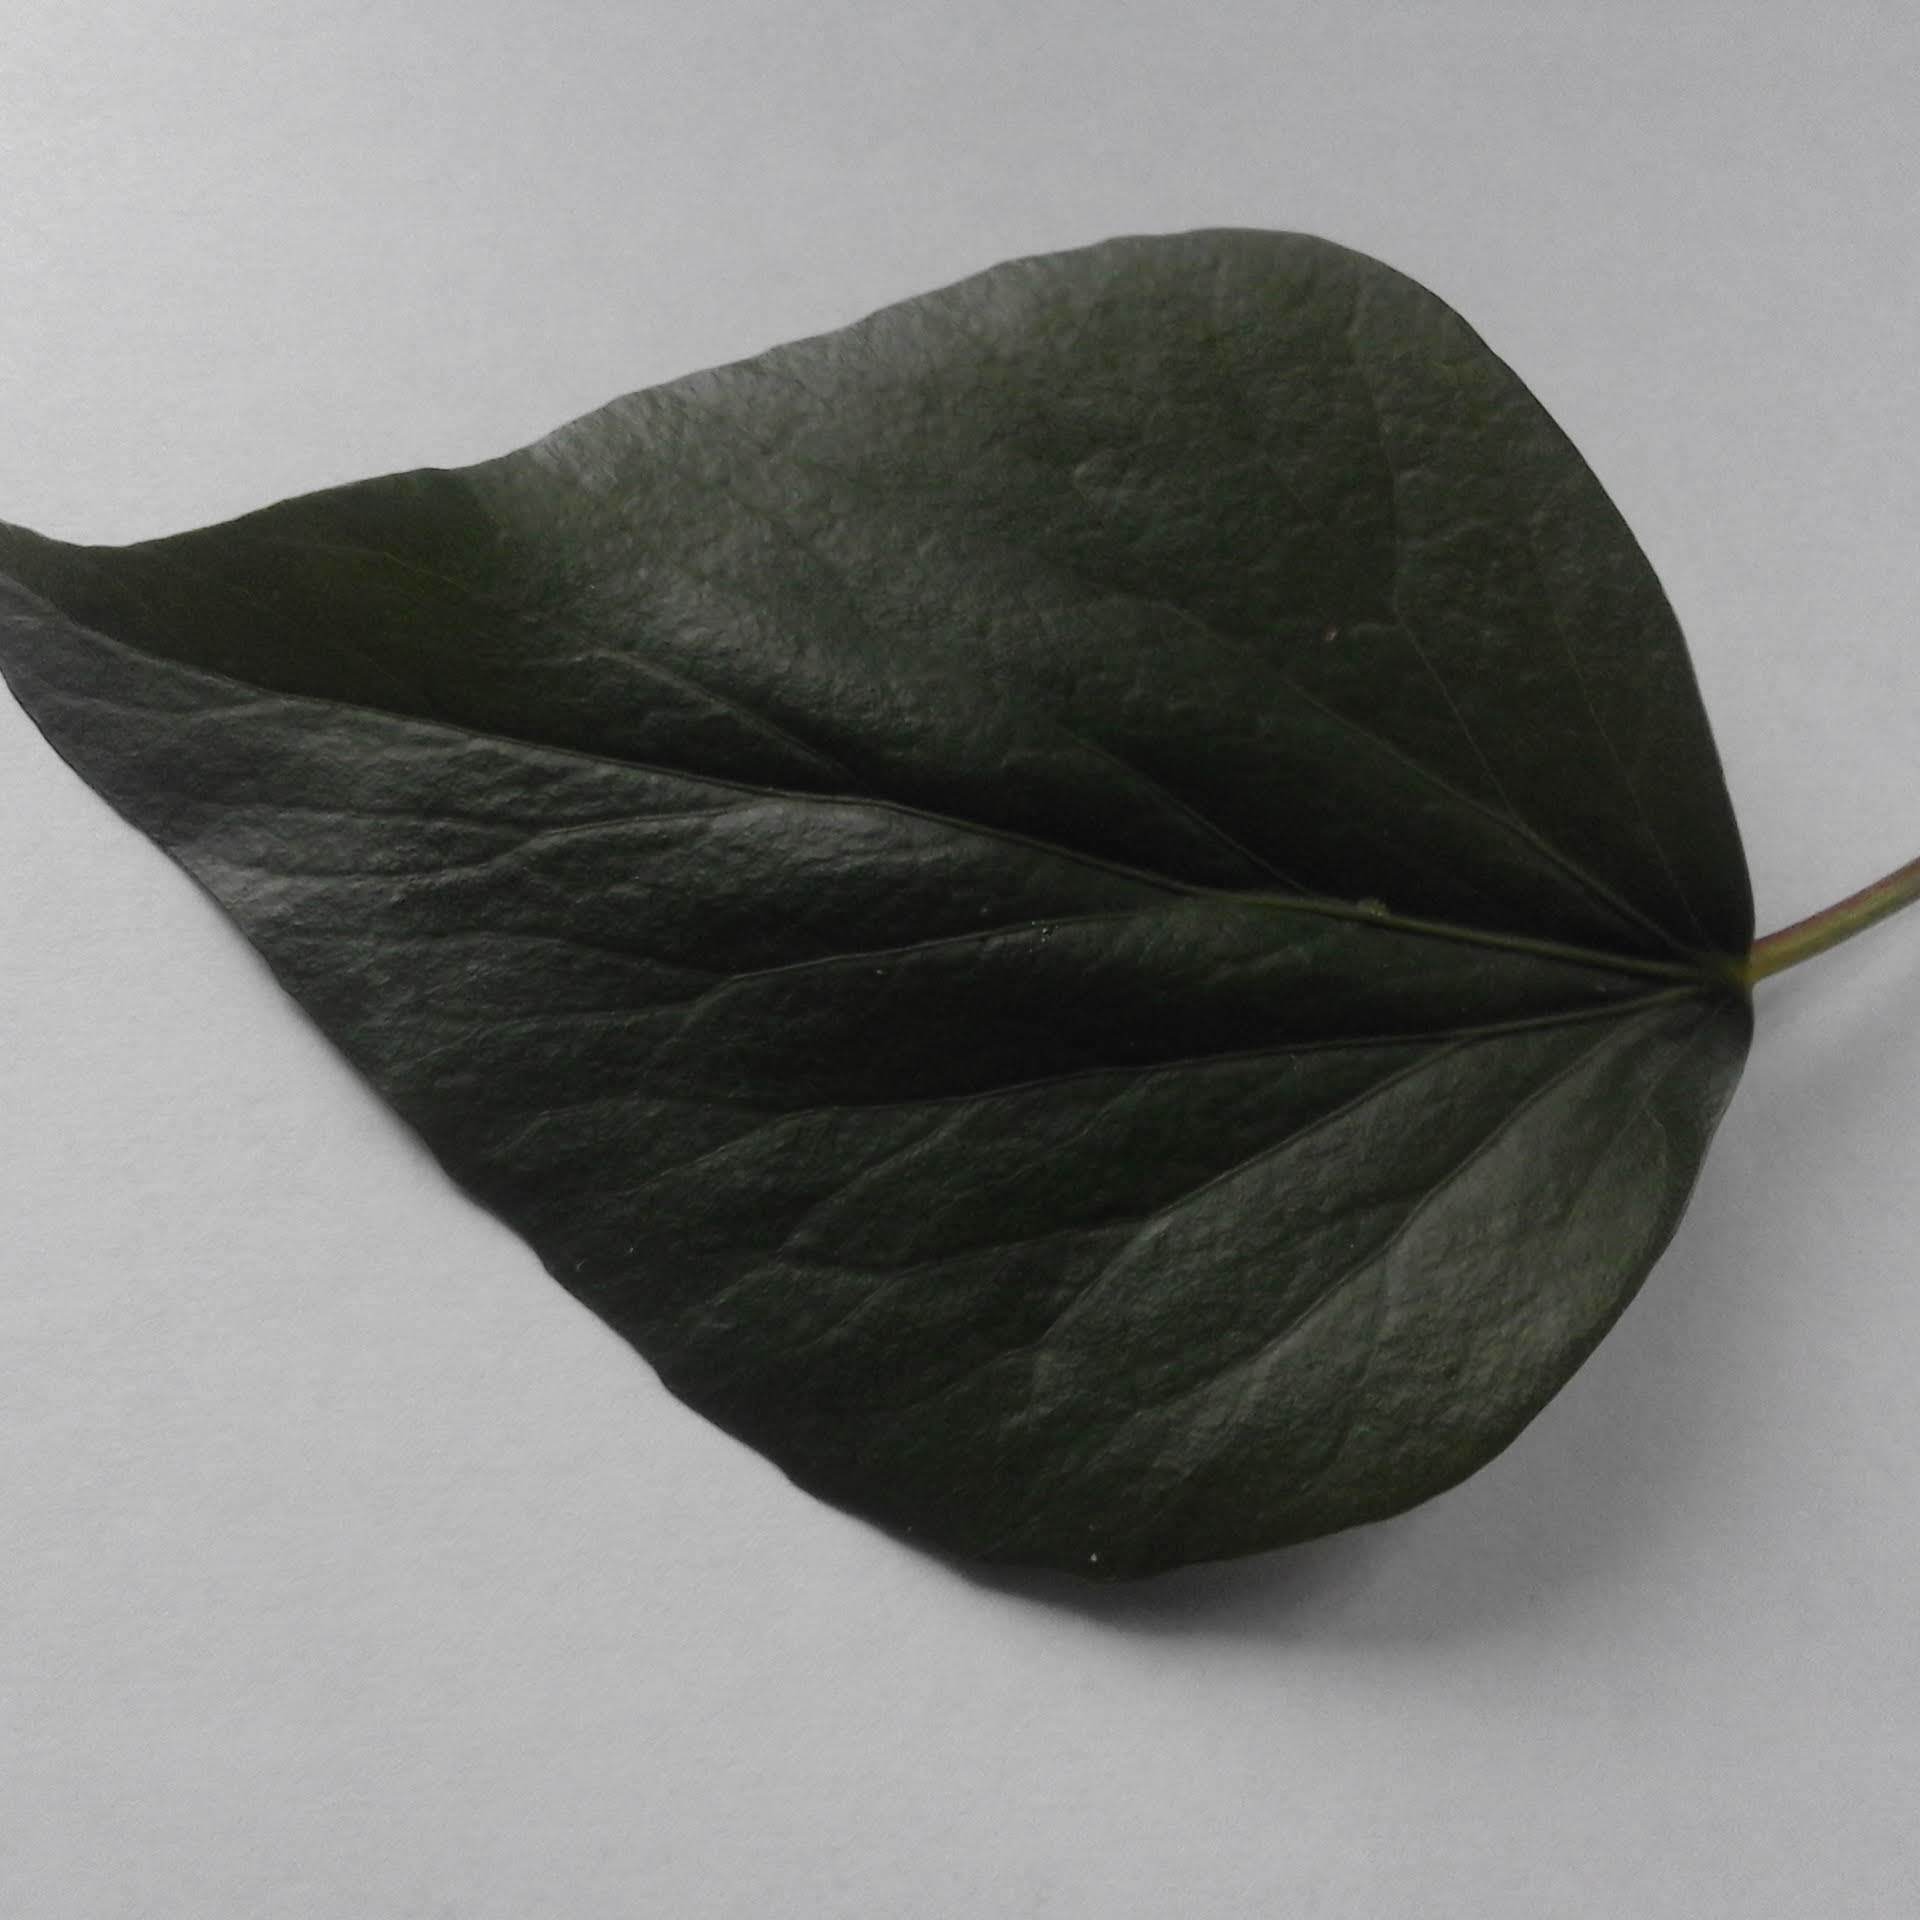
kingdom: Plantae
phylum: Tracheophyta
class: Magnoliopsida
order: Apiales
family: Araliaceae
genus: Hedera
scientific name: Hedera colchica
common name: Persian ivy
